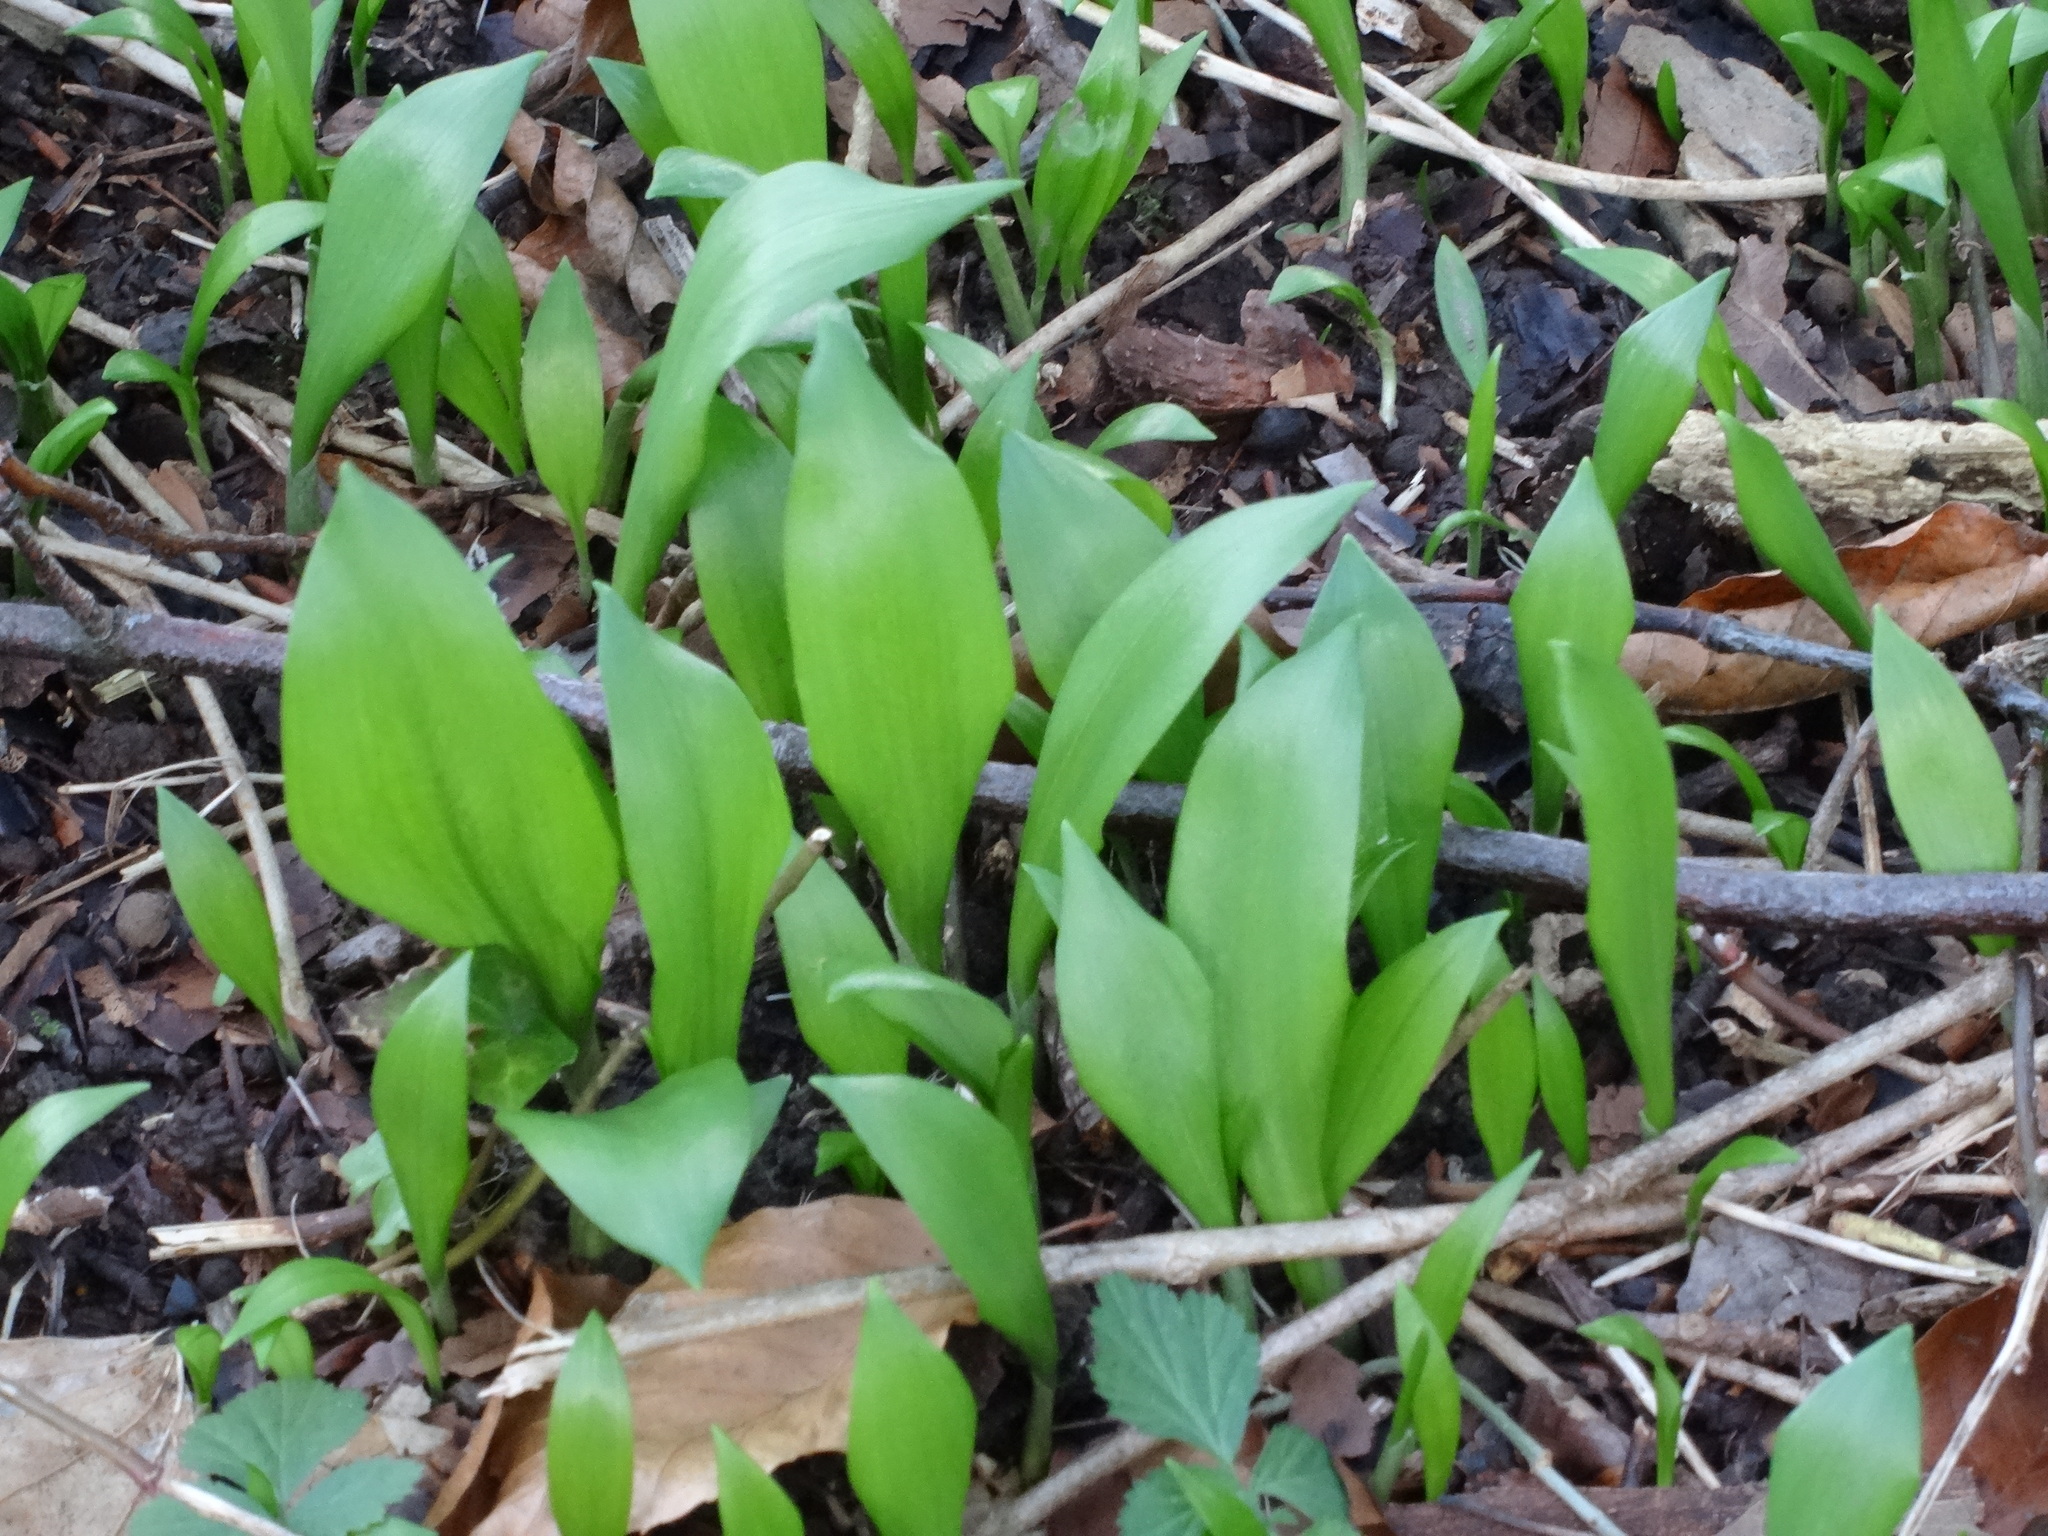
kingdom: Plantae
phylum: Tracheophyta
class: Liliopsida
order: Asparagales
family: Amaryllidaceae
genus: Allium
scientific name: Allium ursinum
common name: Ramsons
